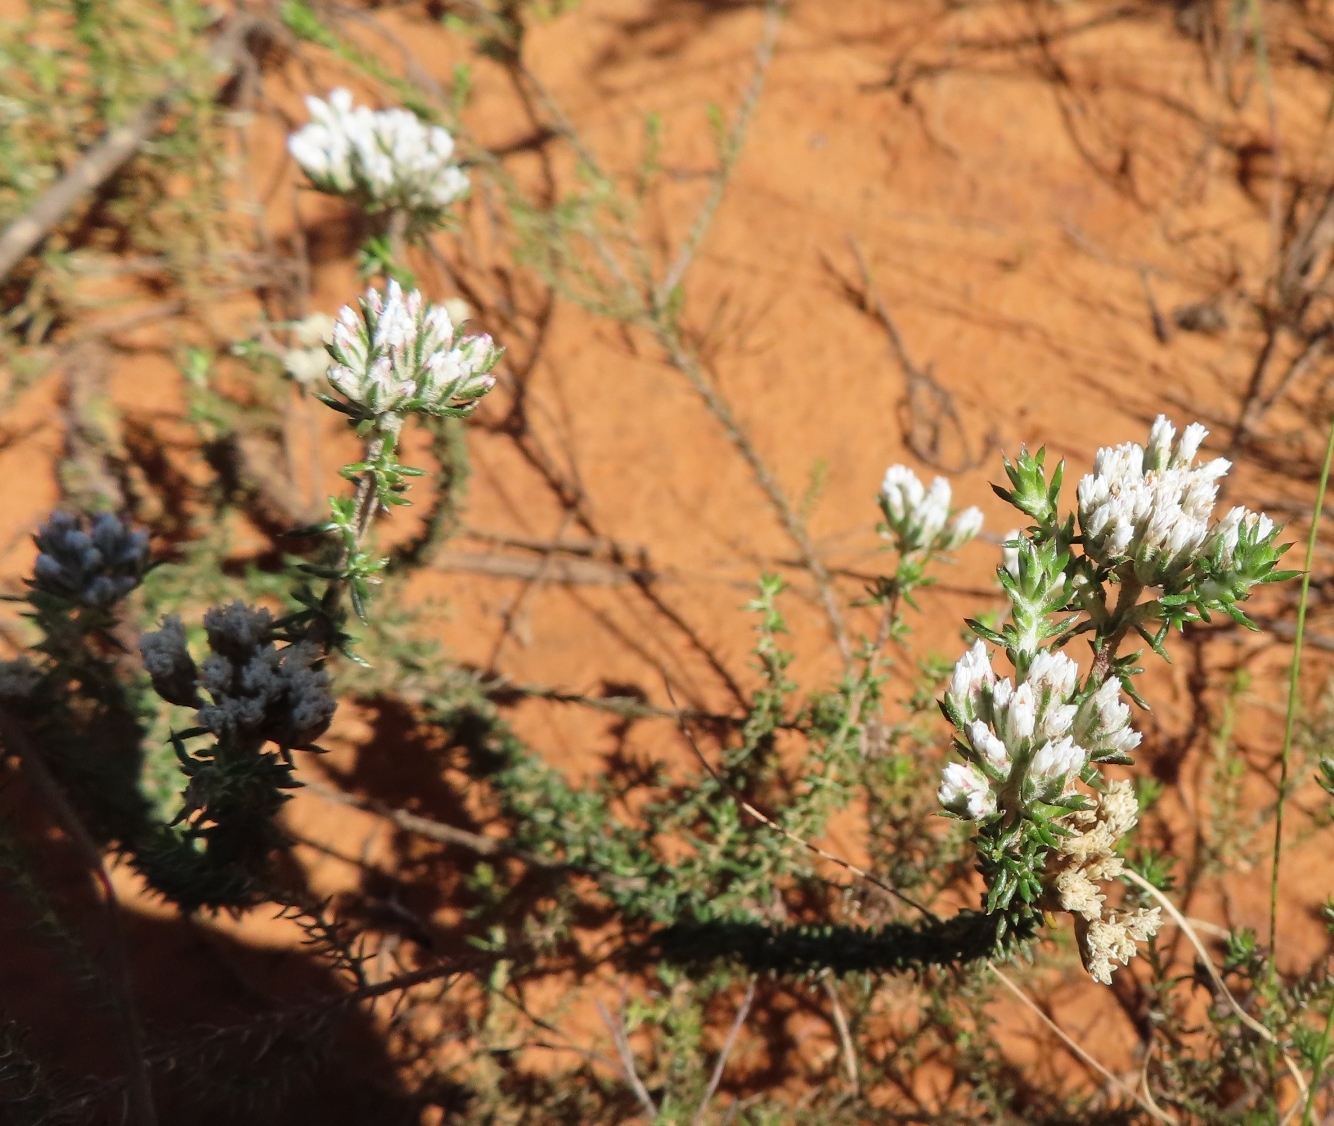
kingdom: Plantae
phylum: Tracheophyta
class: Magnoliopsida
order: Asterales
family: Asteraceae
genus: Metalasia
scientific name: Metalasia brevifolia
